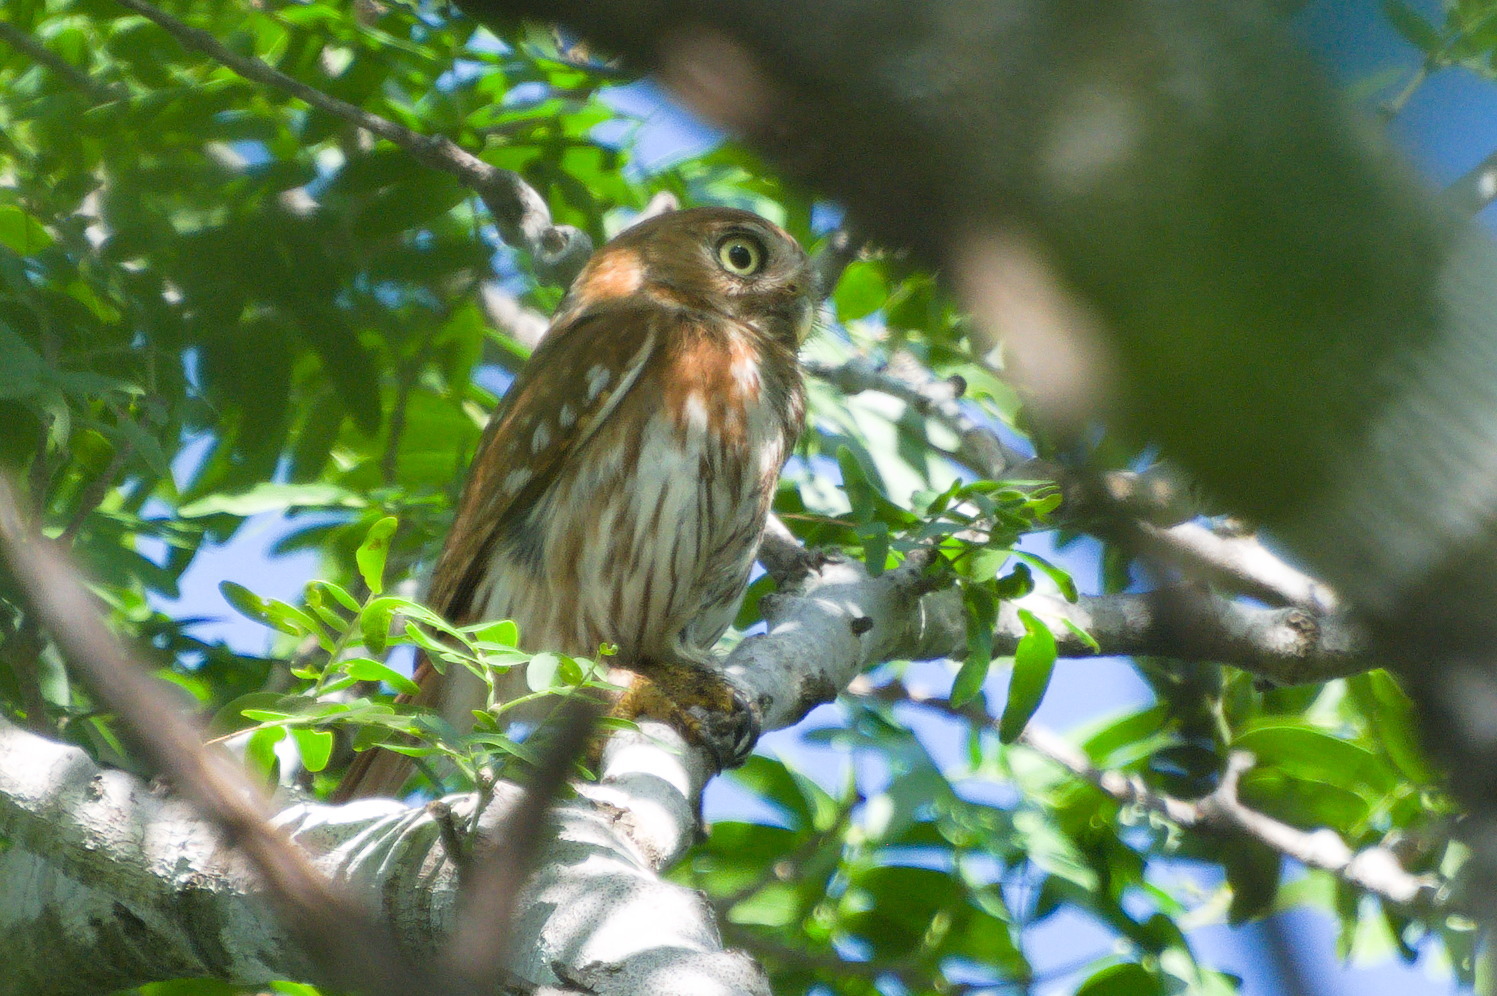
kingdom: Animalia
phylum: Chordata
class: Aves
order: Strigiformes
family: Strigidae
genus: Glaucidium
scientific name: Glaucidium brasilianum
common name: Ferruginous pygmy-owl
